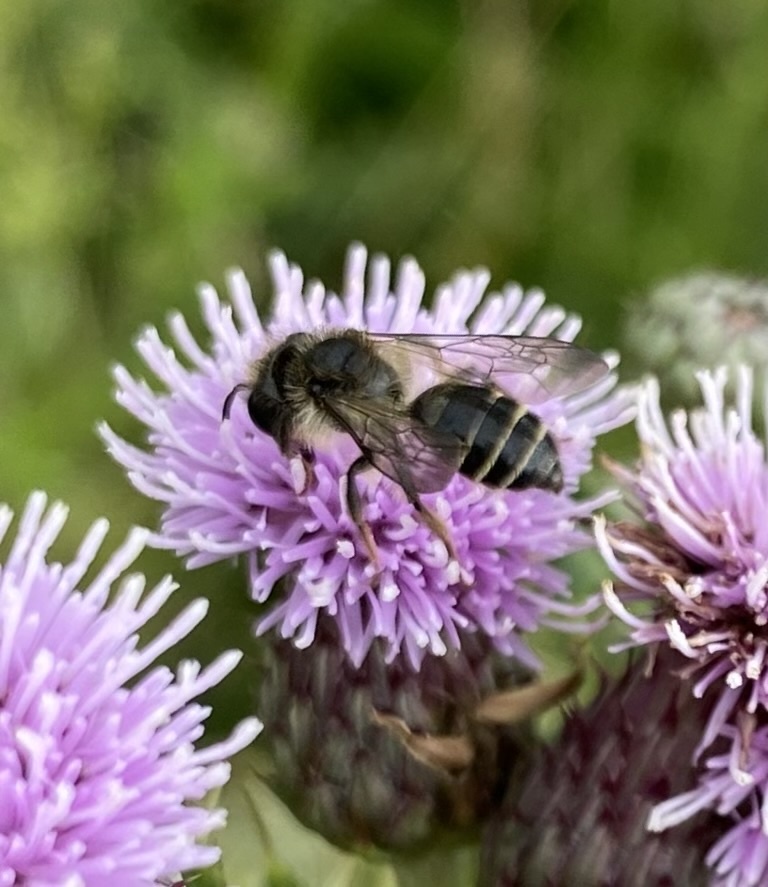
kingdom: Animalia
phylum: Arthropoda
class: Insecta
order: Hymenoptera
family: Andrenidae
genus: Andrena
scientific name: Andrena denticulata
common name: Grey-banded mining bee
